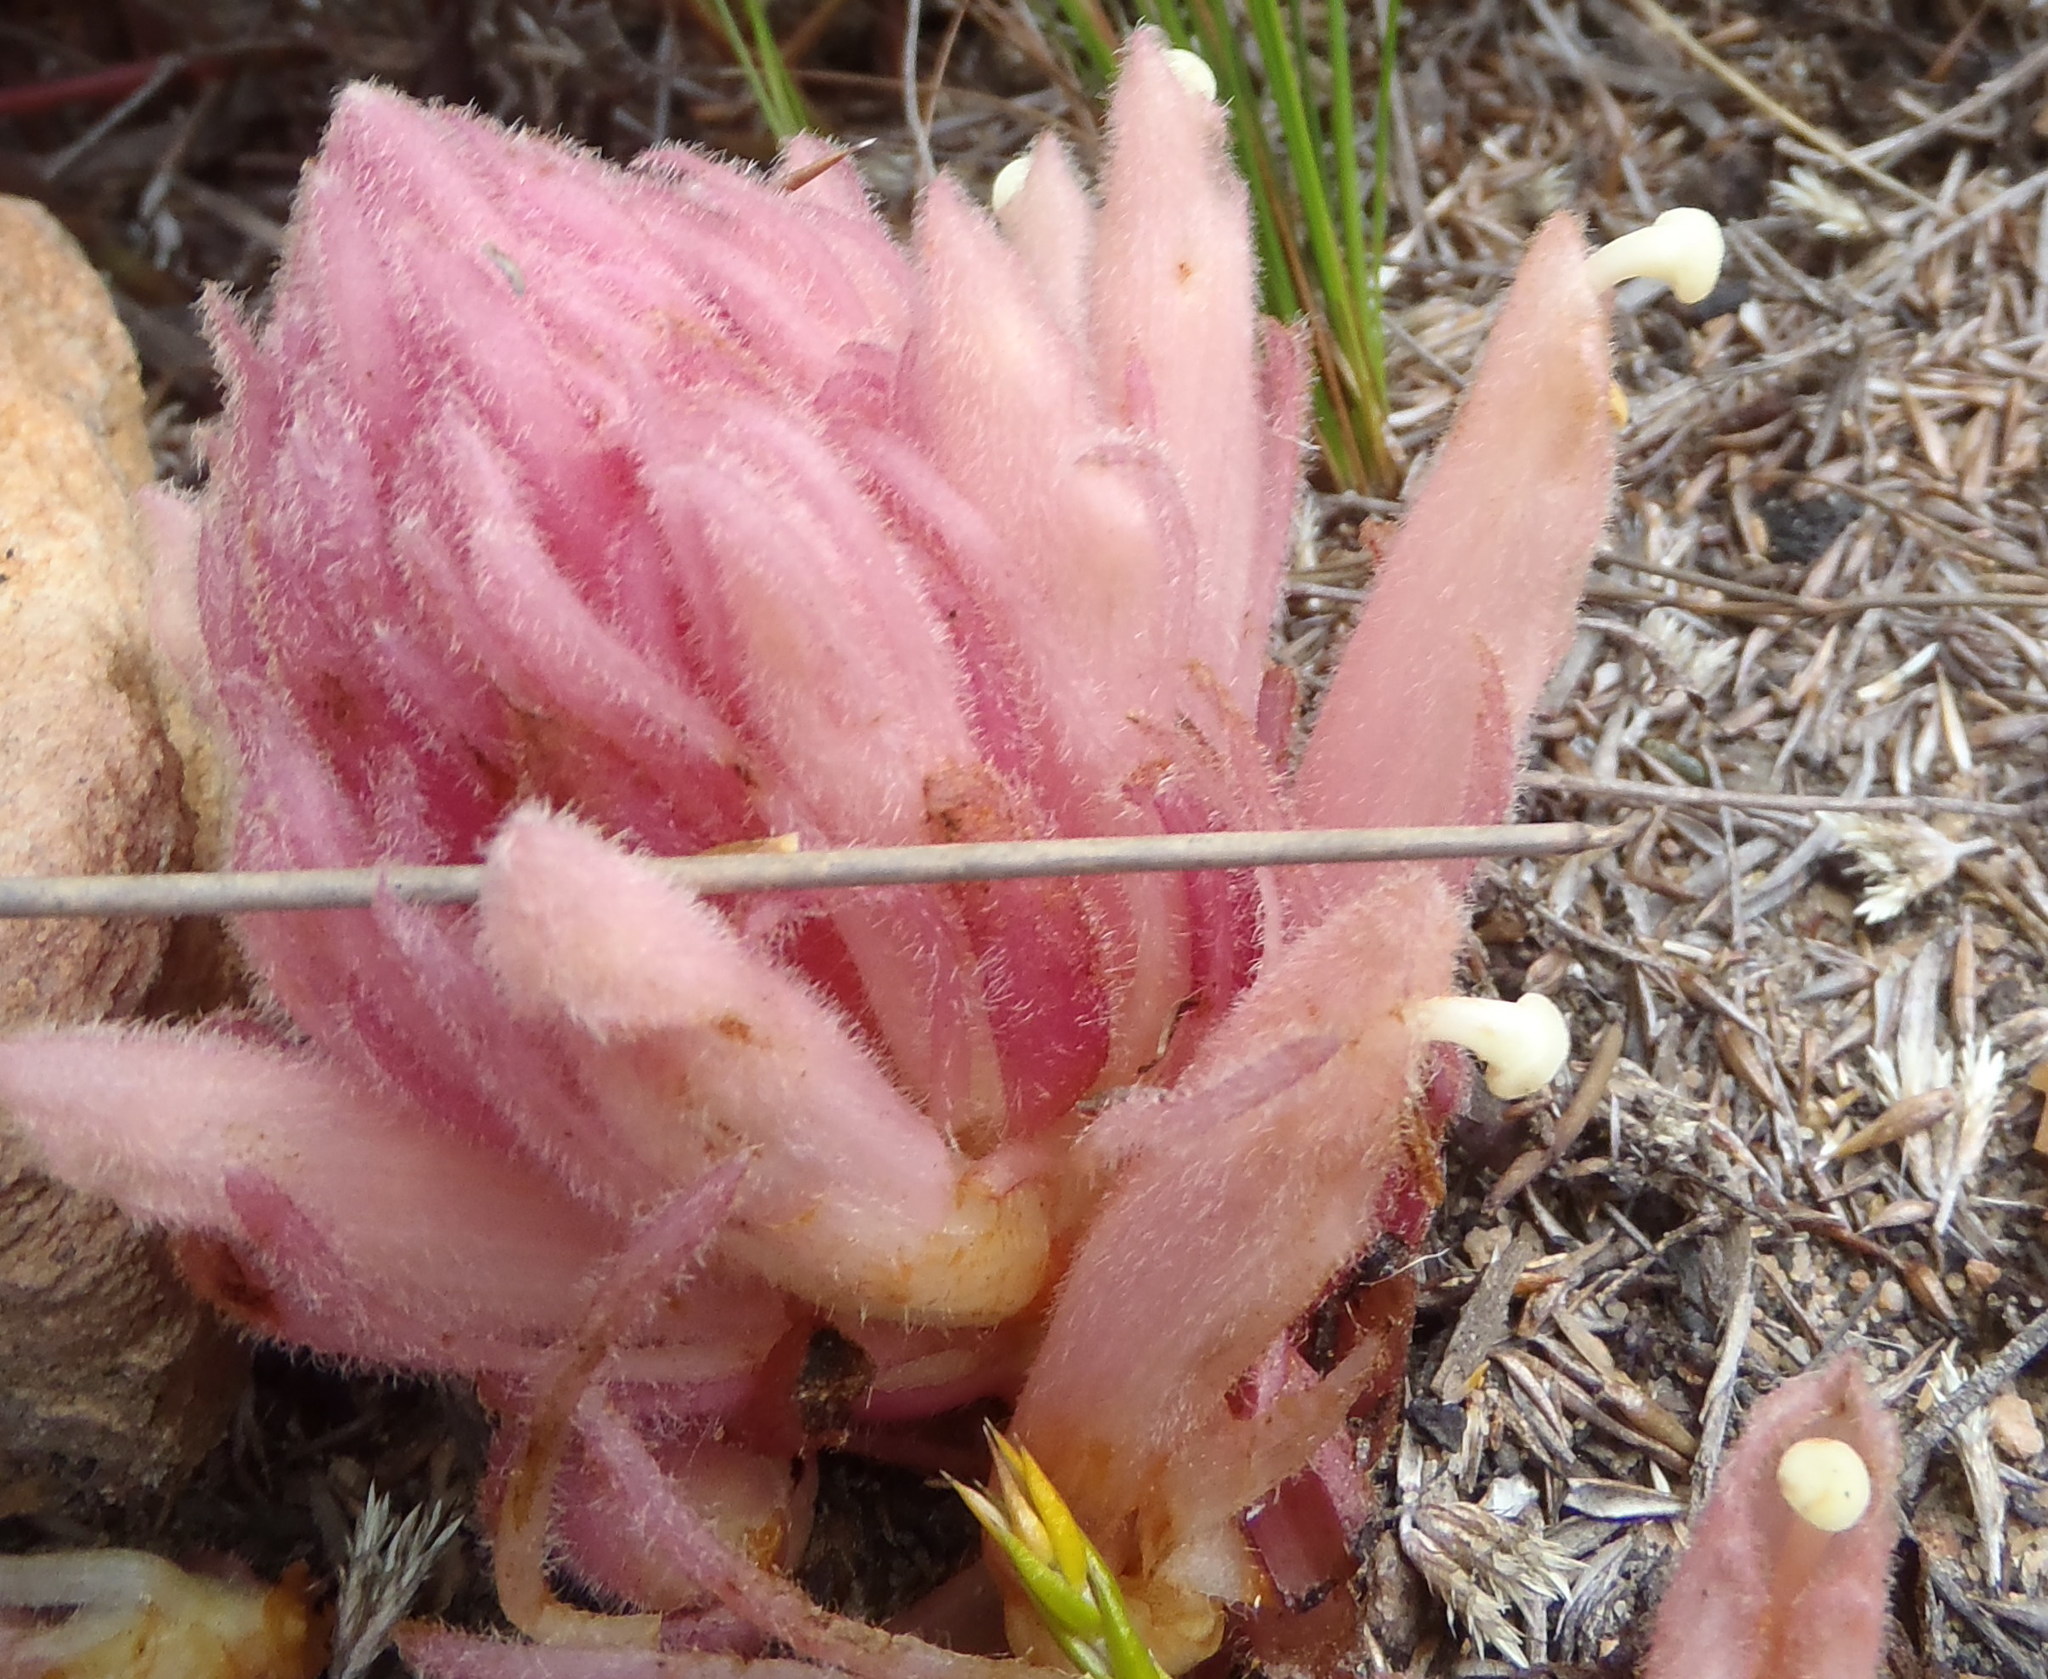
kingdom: Plantae
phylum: Tracheophyta
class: Magnoliopsida
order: Lamiales
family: Orobanchaceae
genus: Hyobanche
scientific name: Hyobanche rubra
